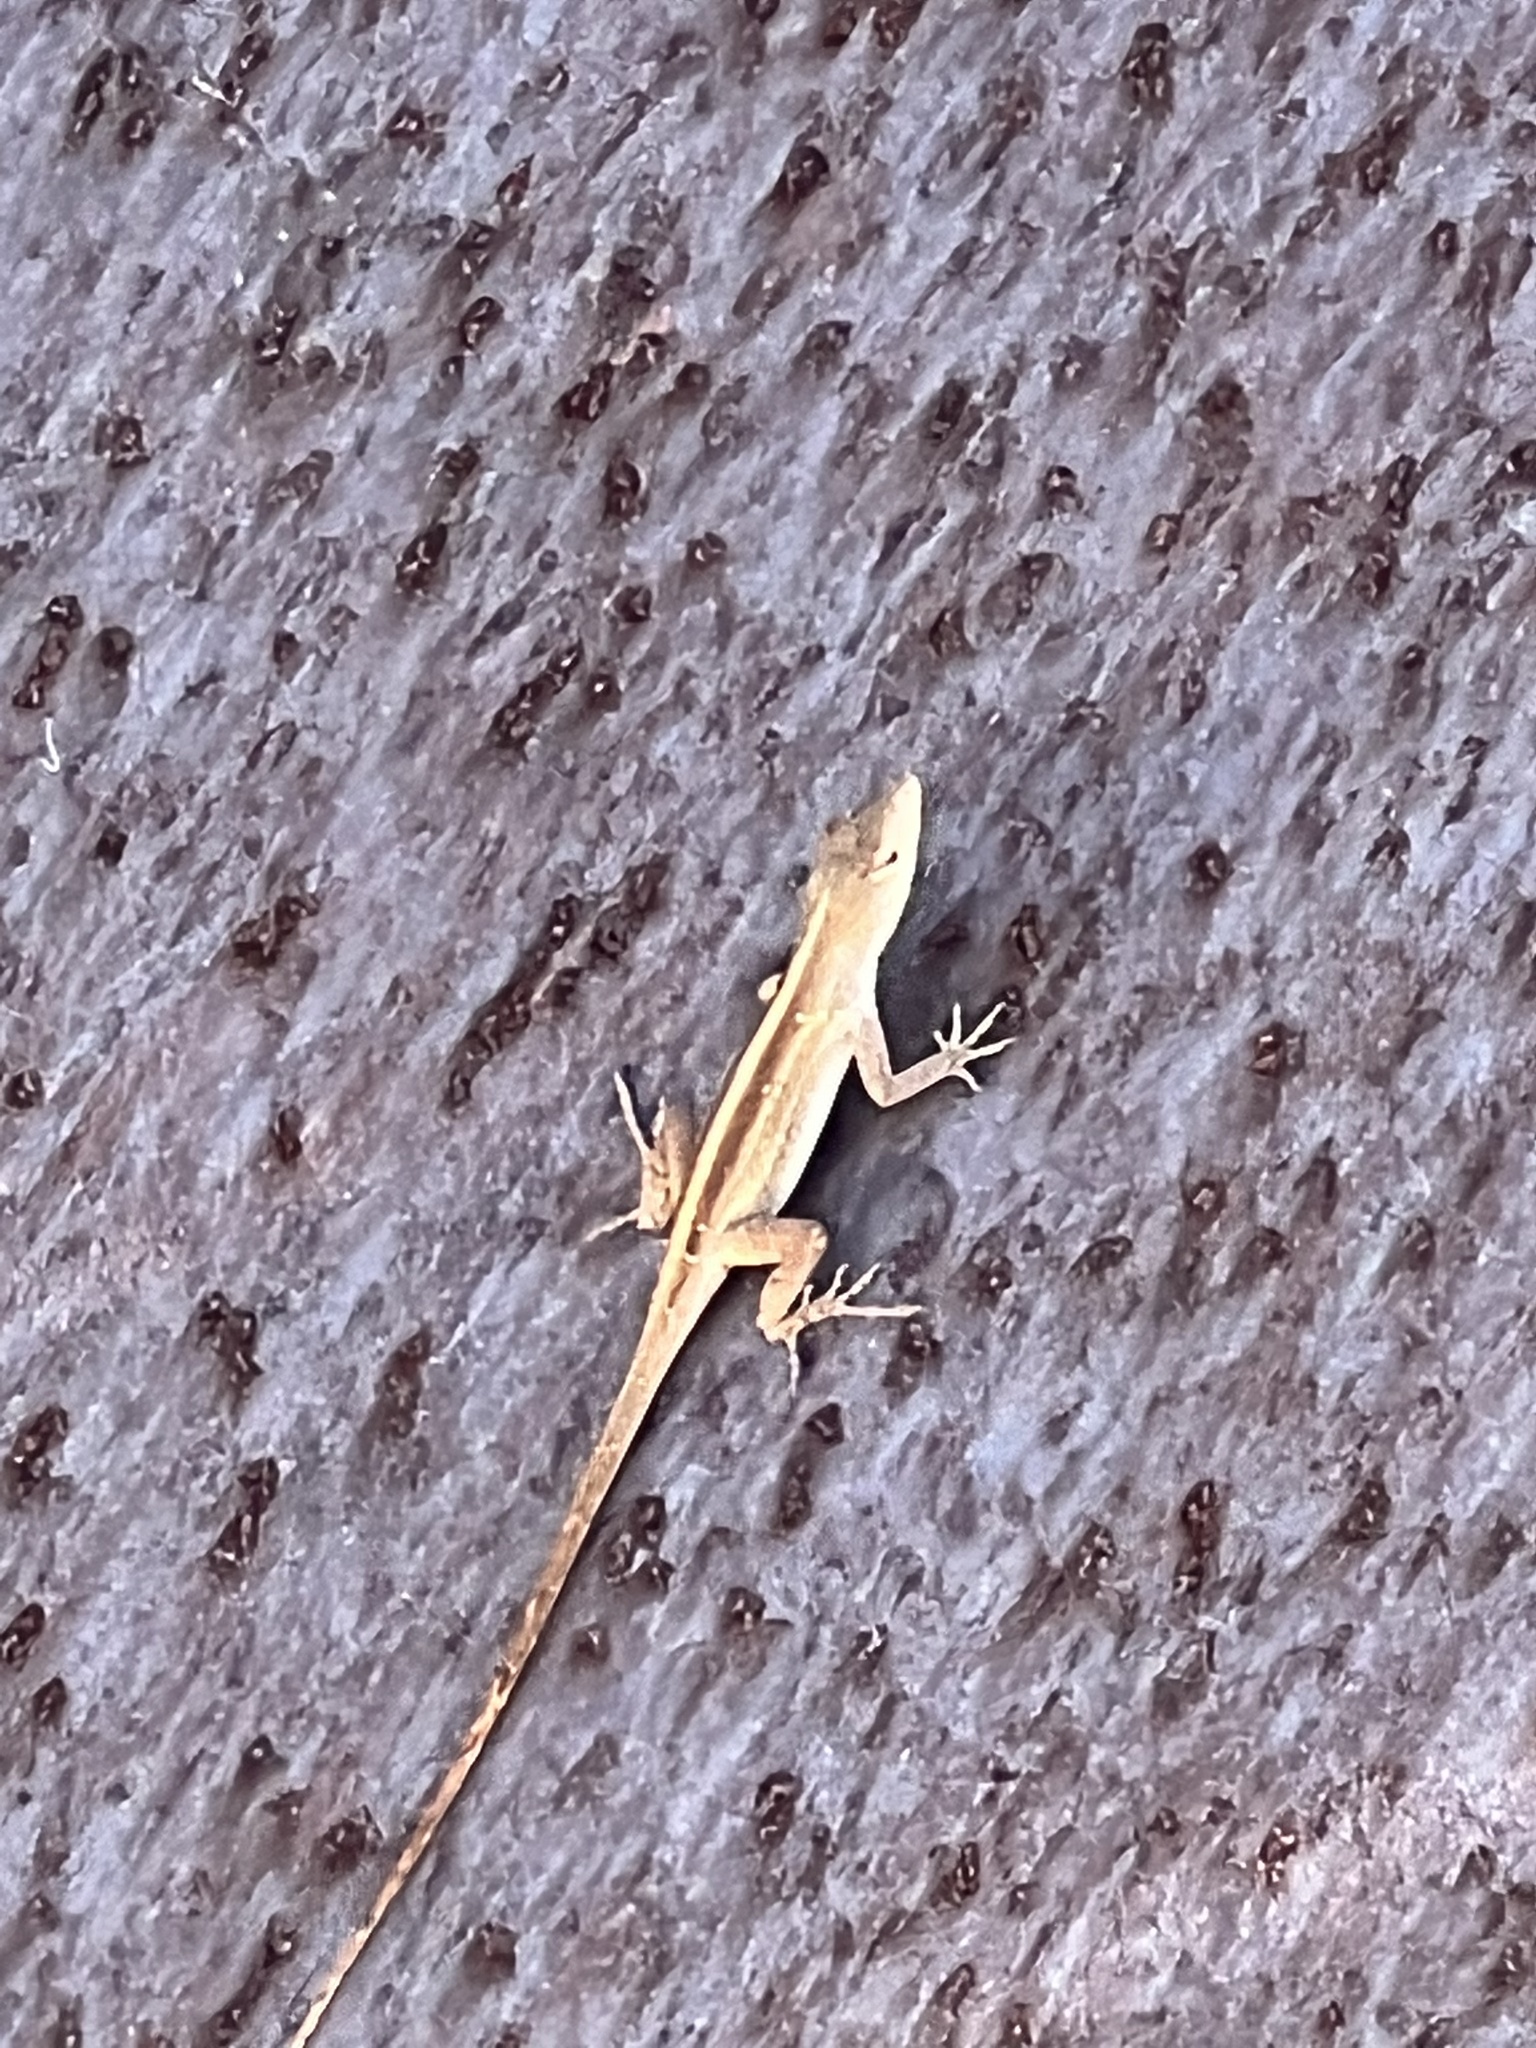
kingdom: Animalia
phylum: Chordata
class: Squamata
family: Dactyloidae
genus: Anolis
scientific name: Anolis sagrei
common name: Brown anole
